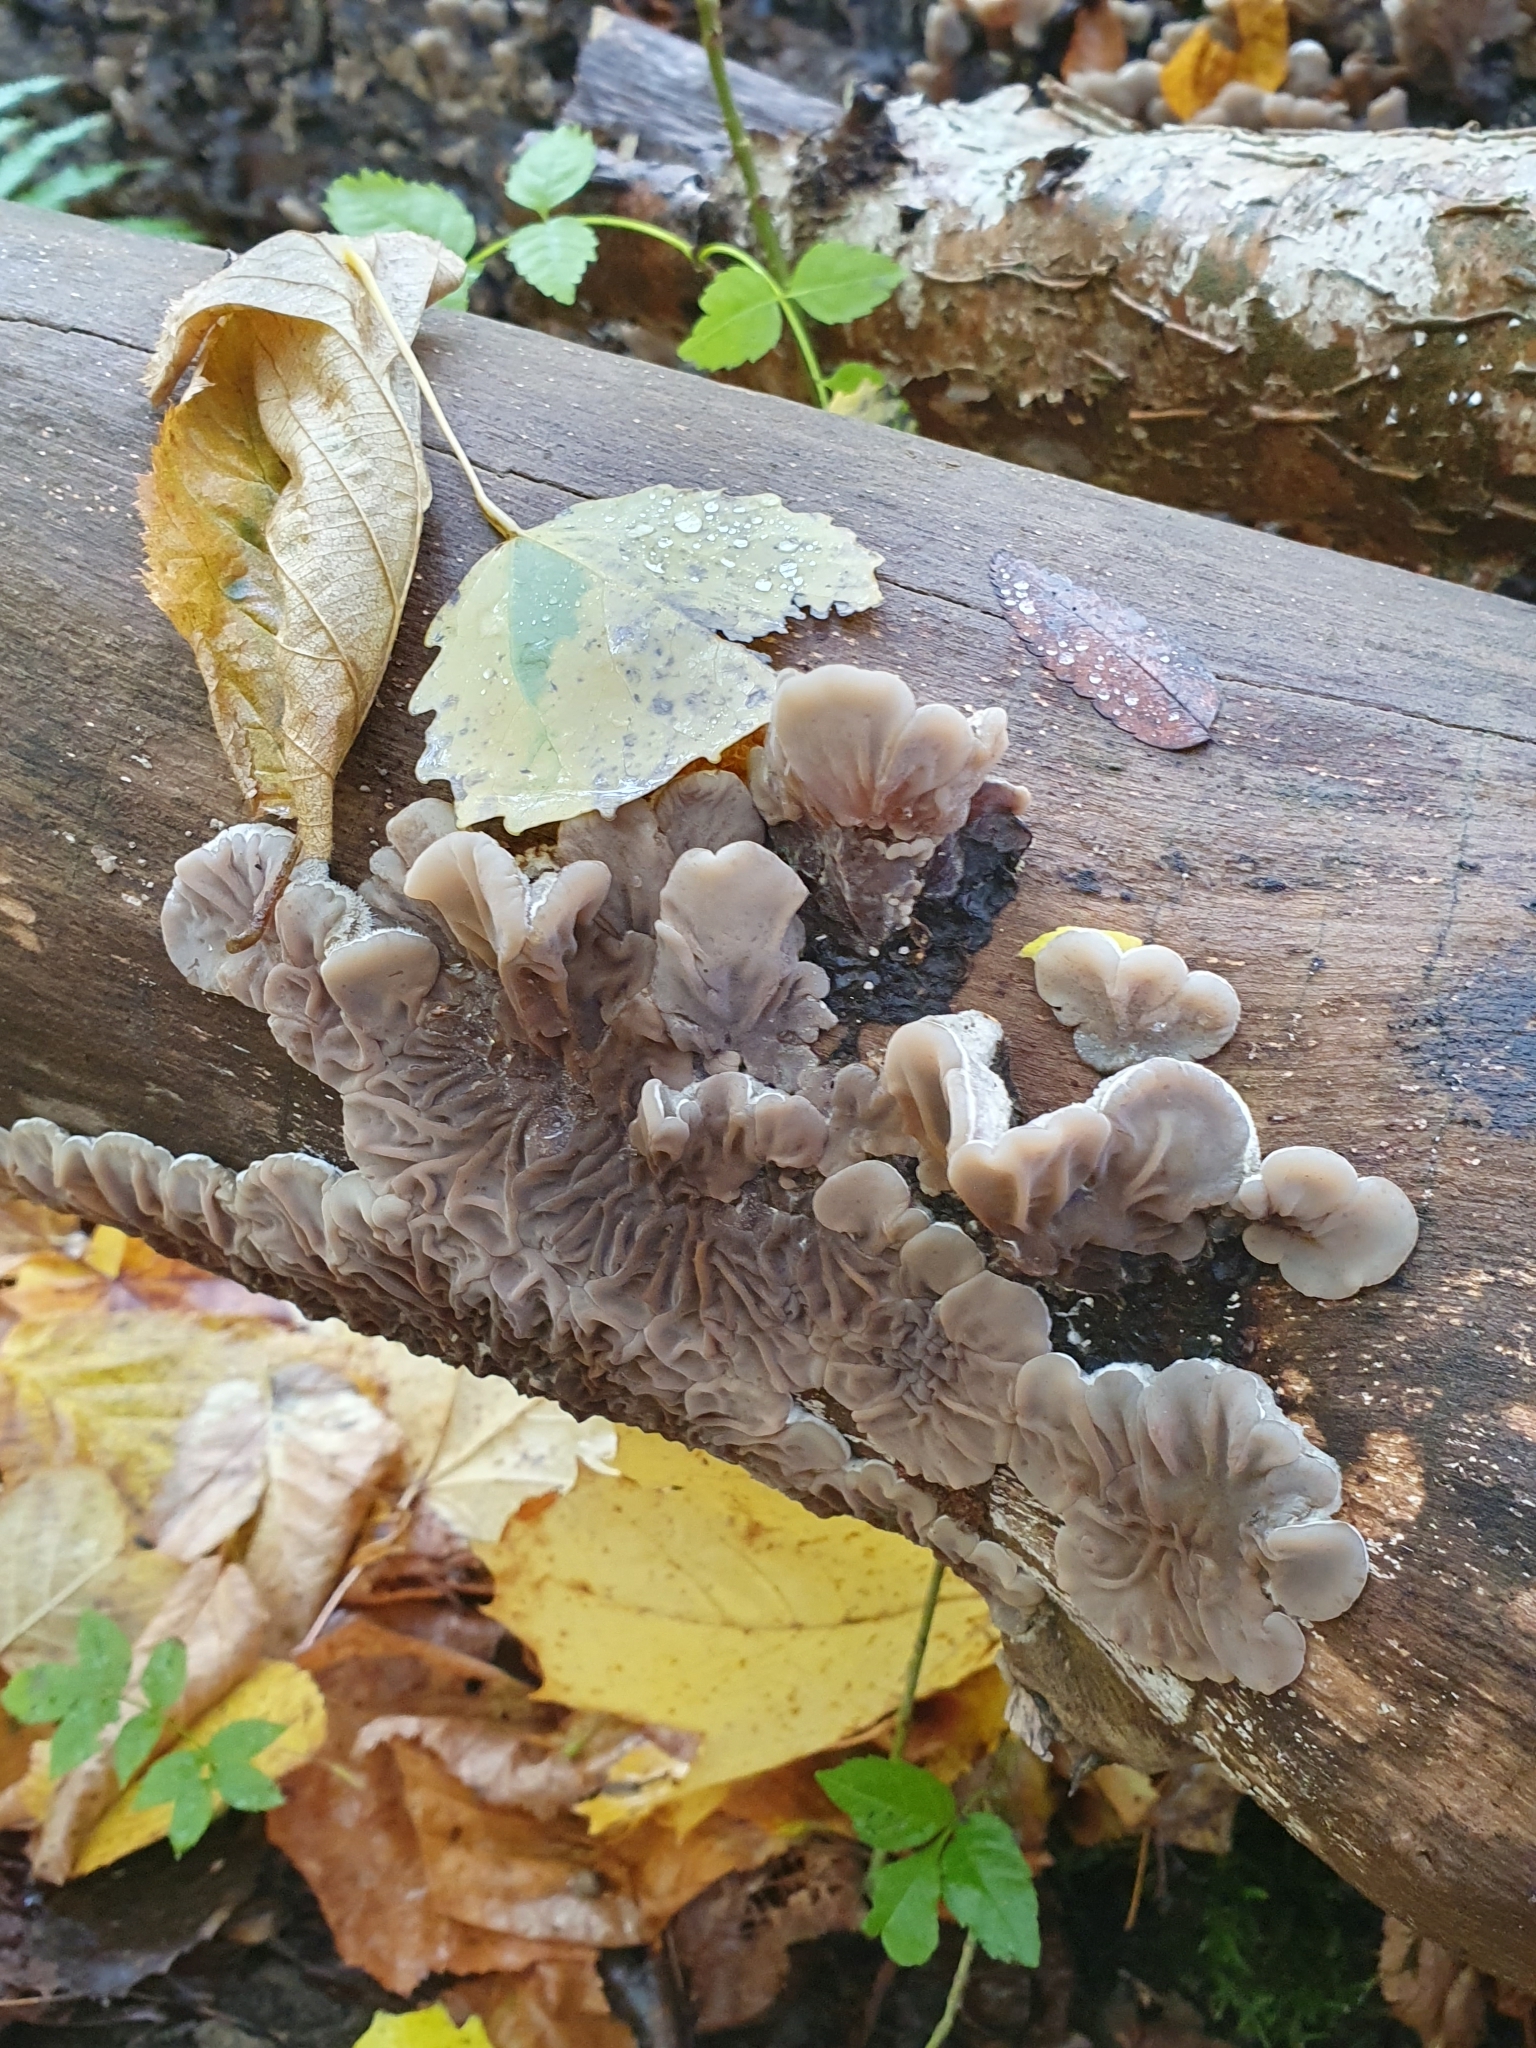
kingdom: Fungi
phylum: Basidiomycota
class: Agaricomycetes
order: Auriculariales
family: Auriculariaceae
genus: Auricularia
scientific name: Auricularia mesenterica
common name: Tripe fungus
